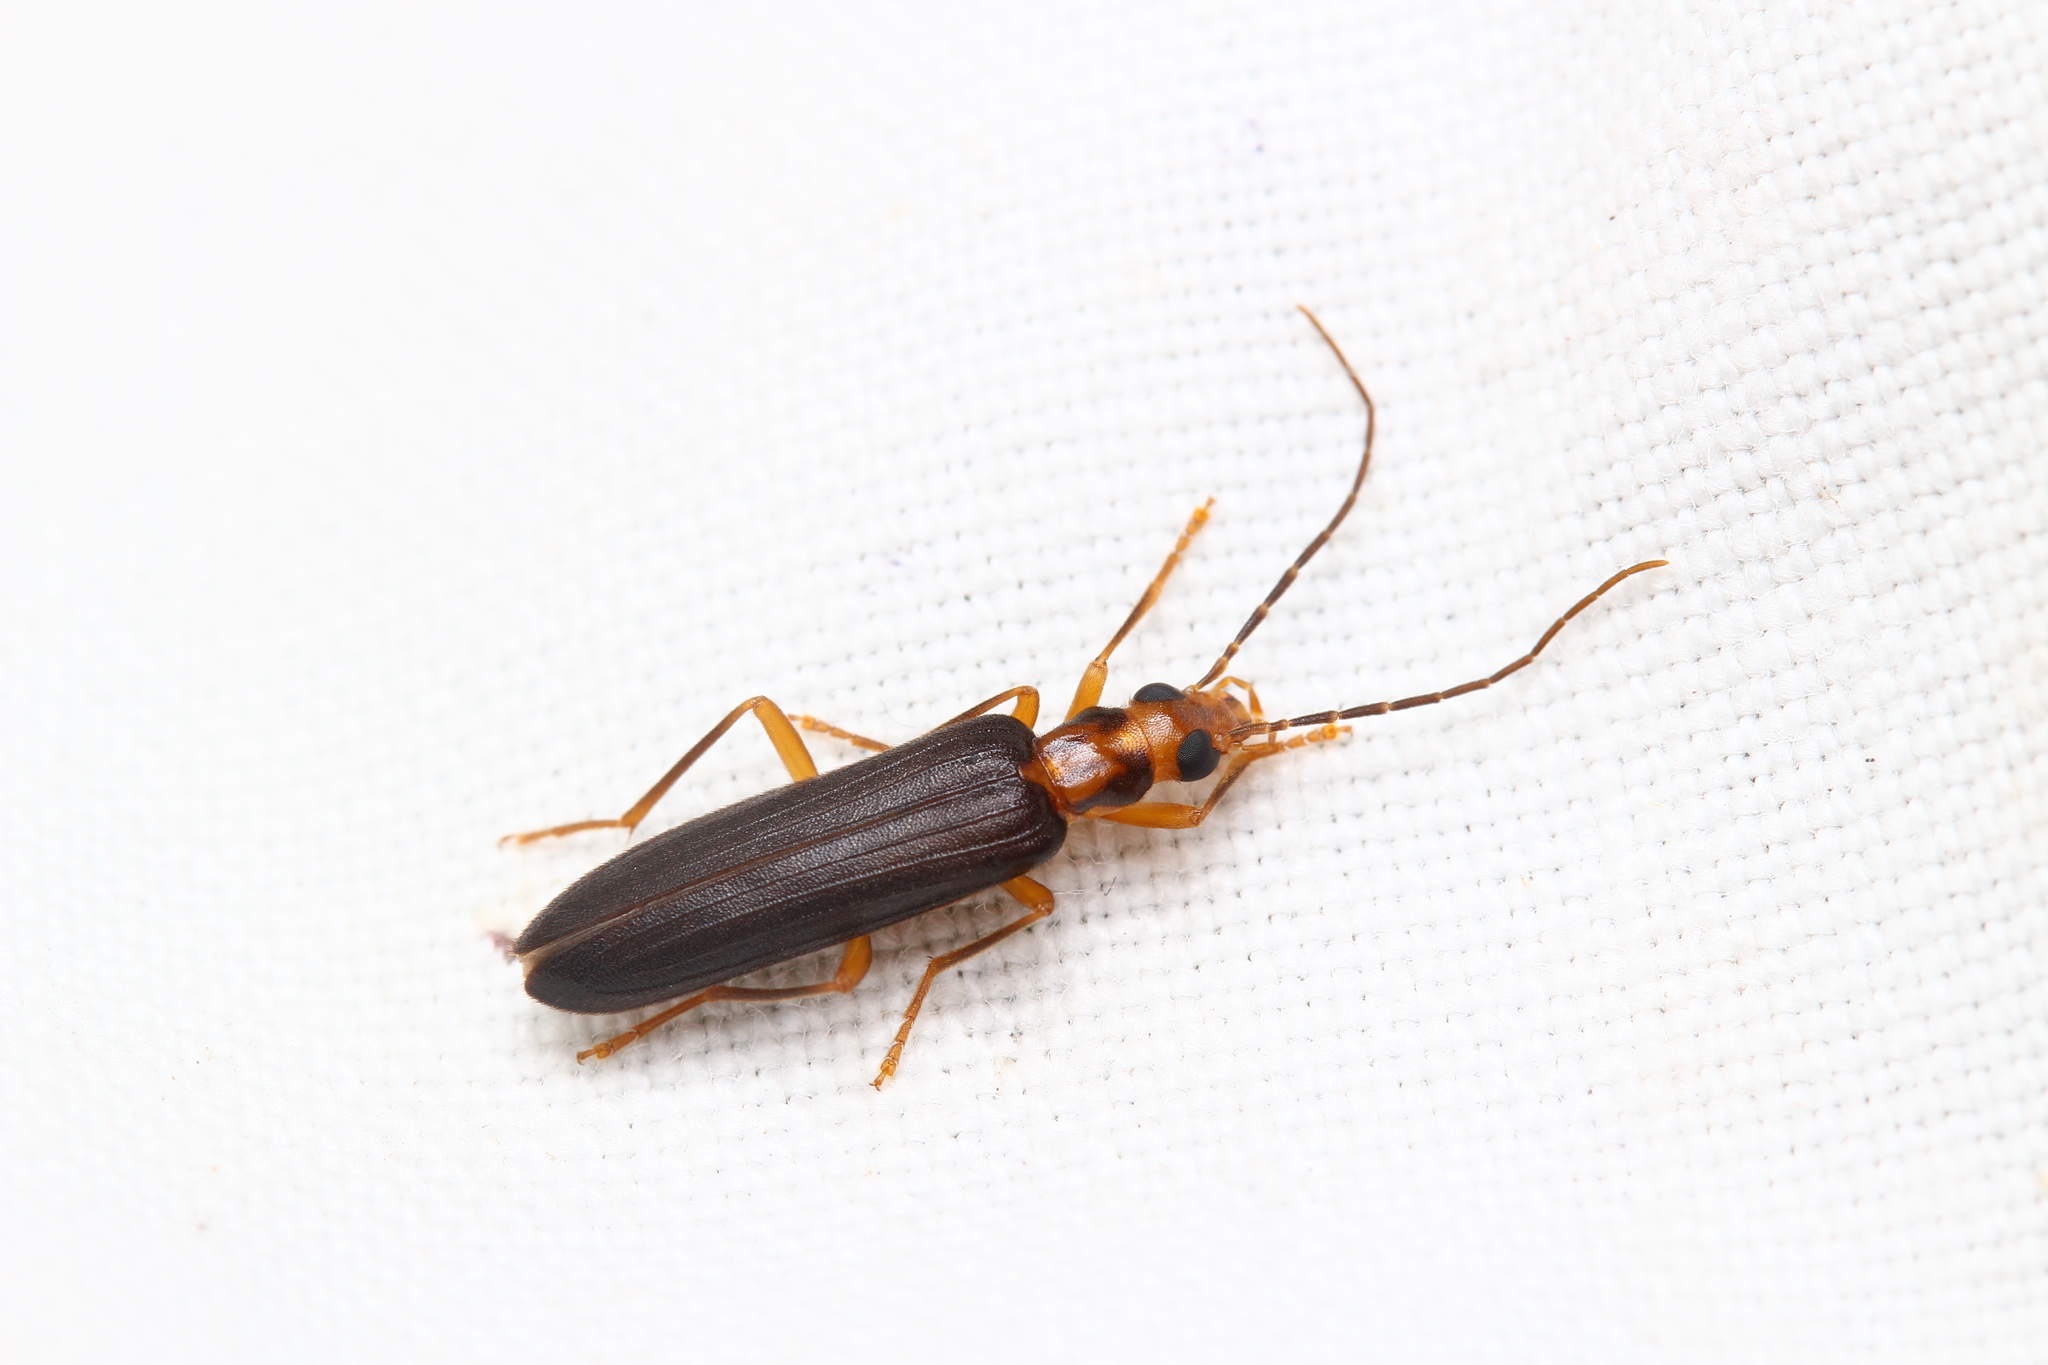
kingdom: Animalia
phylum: Arthropoda
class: Insecta
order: Coleoptera
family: Oedemeridae
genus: Nacerdes
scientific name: Nacerdes carniolica
